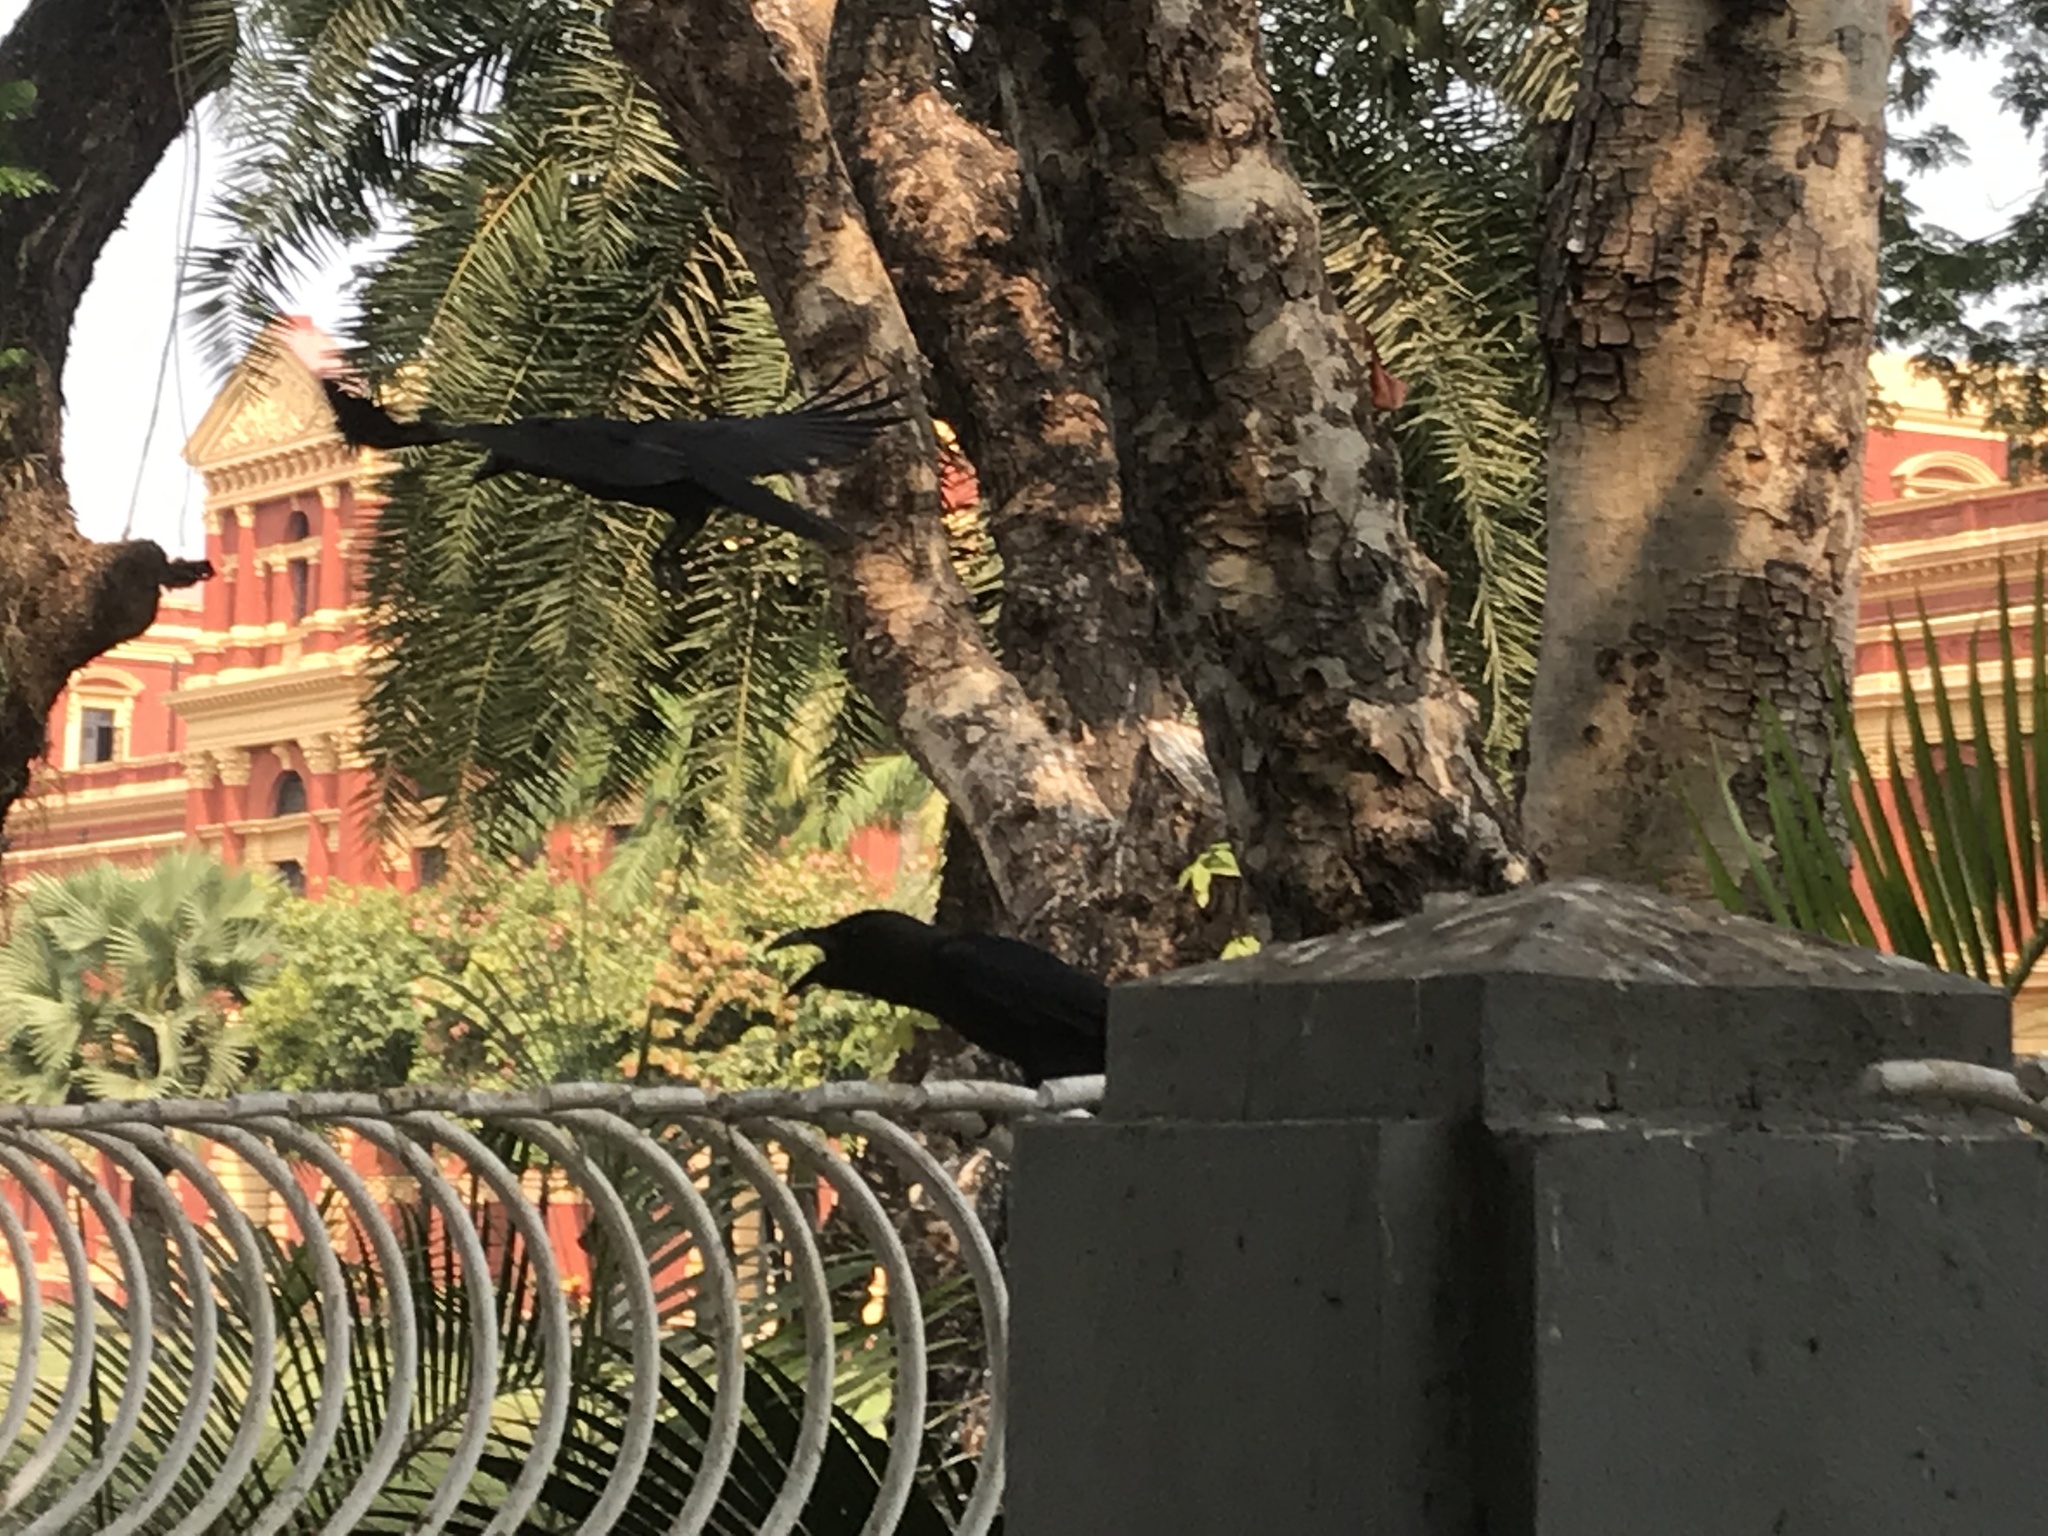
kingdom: Animalia
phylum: Chordata
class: Aves
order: Passeriformes
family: Corvidae
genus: Corvus
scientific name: Corvus splendens
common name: House crow
